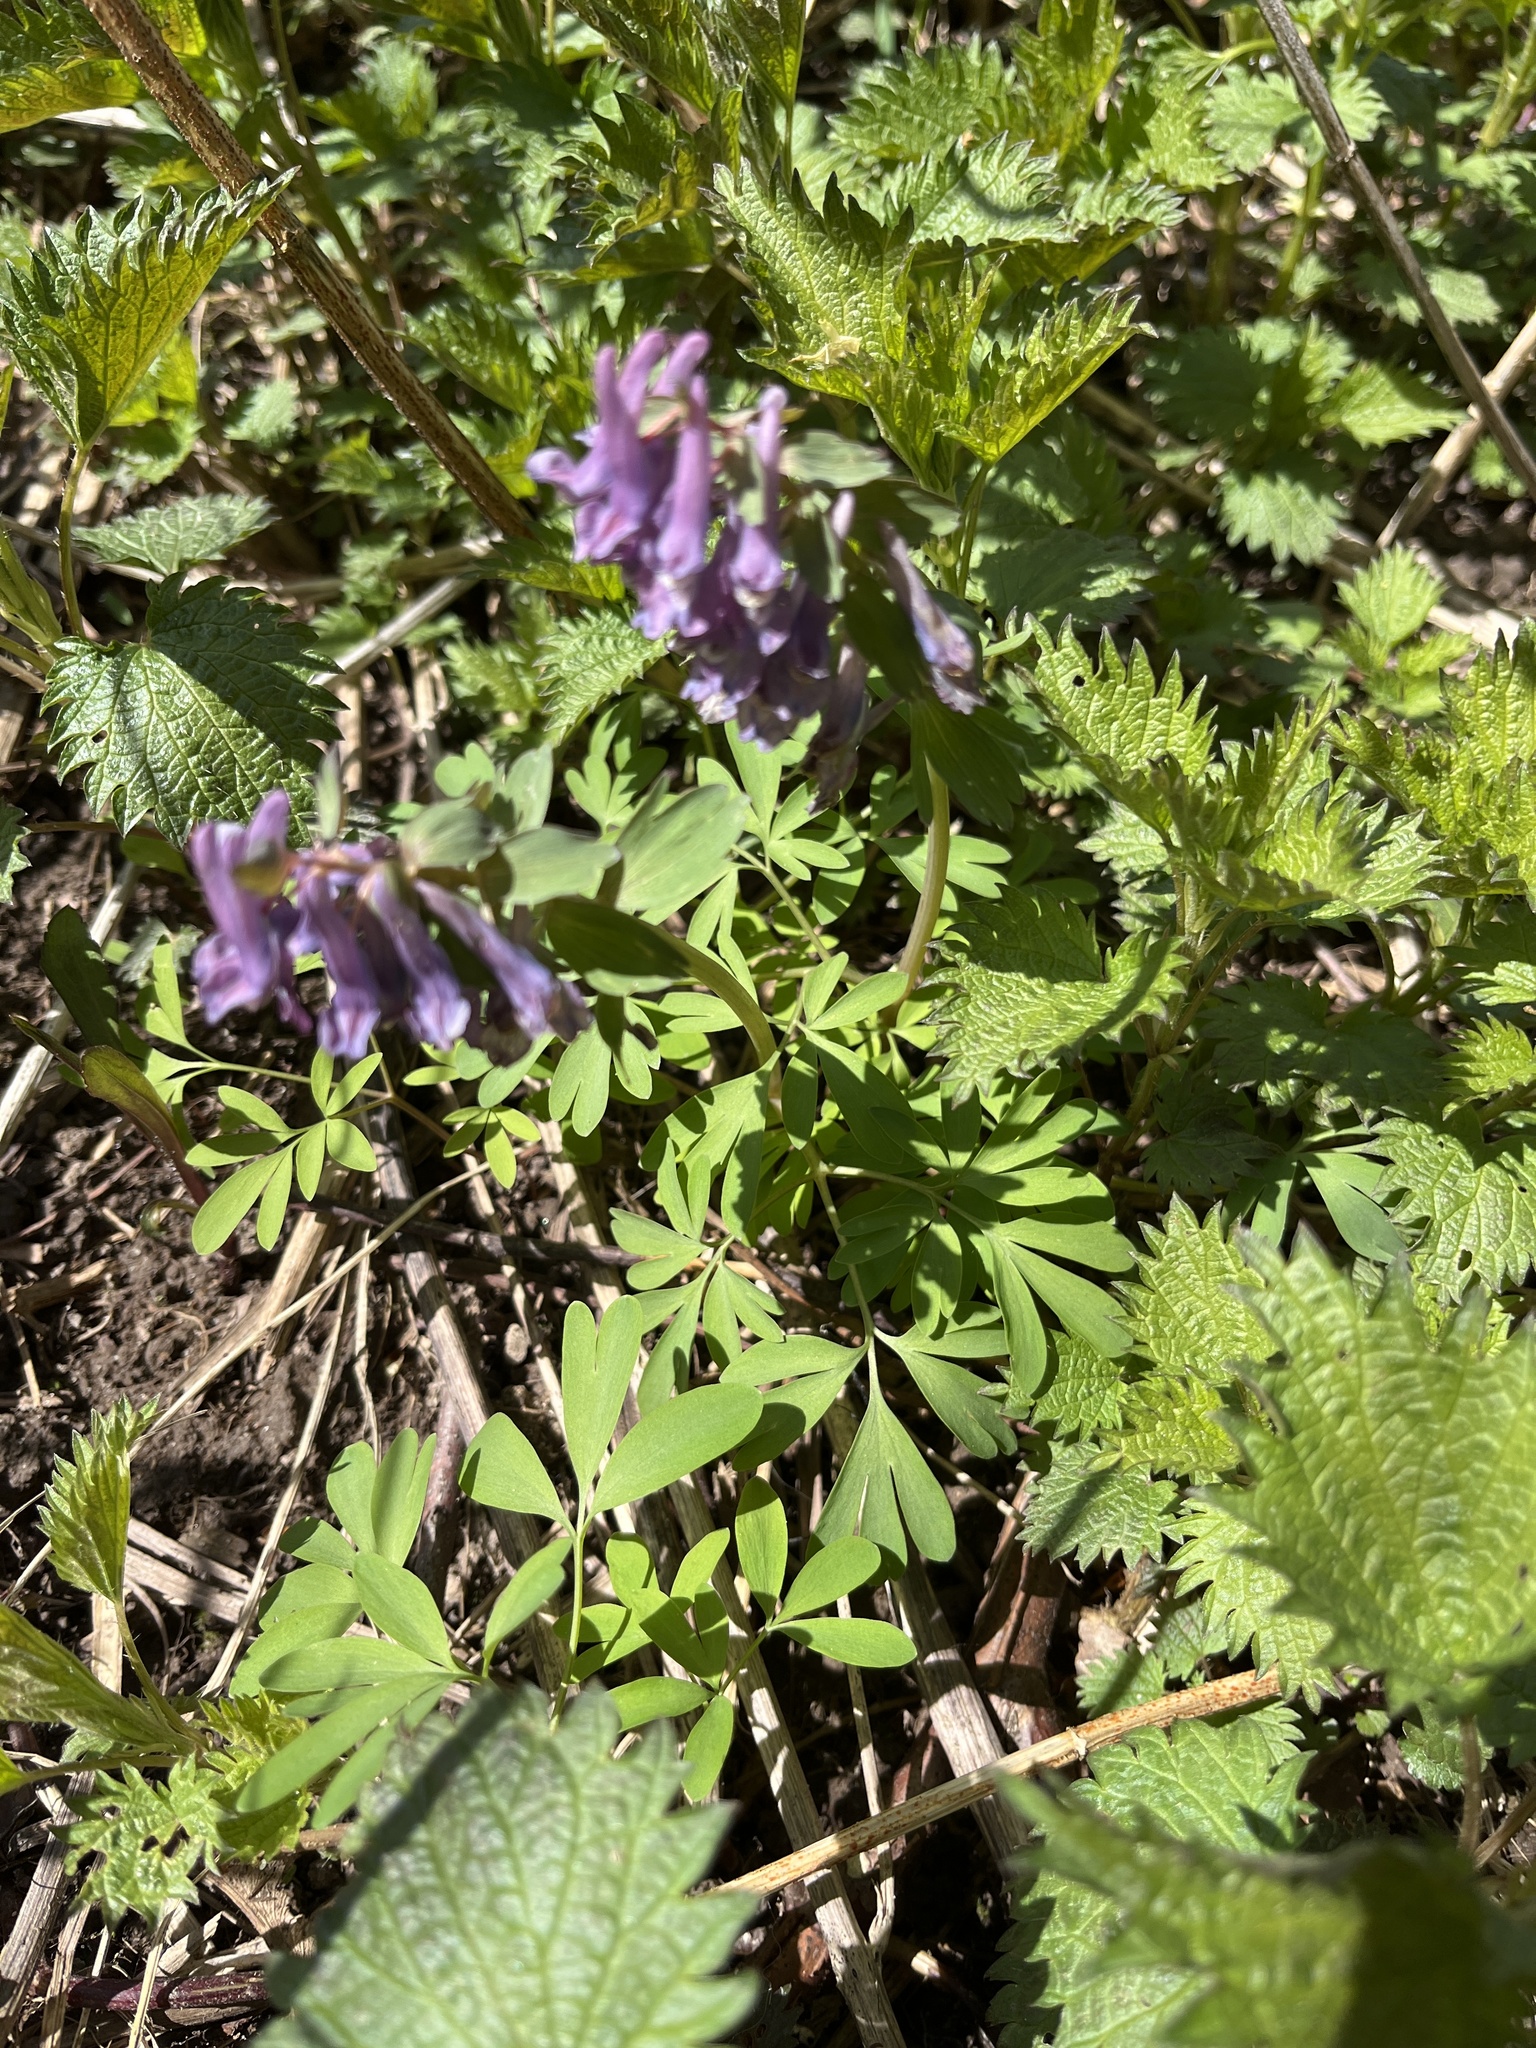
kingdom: Plantae
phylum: Tracheophyta
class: Magnoliopsida
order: Ranunculales
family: Papaveraceae
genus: Corydalis
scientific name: Corydalis solida
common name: Bird-in-a-bush
